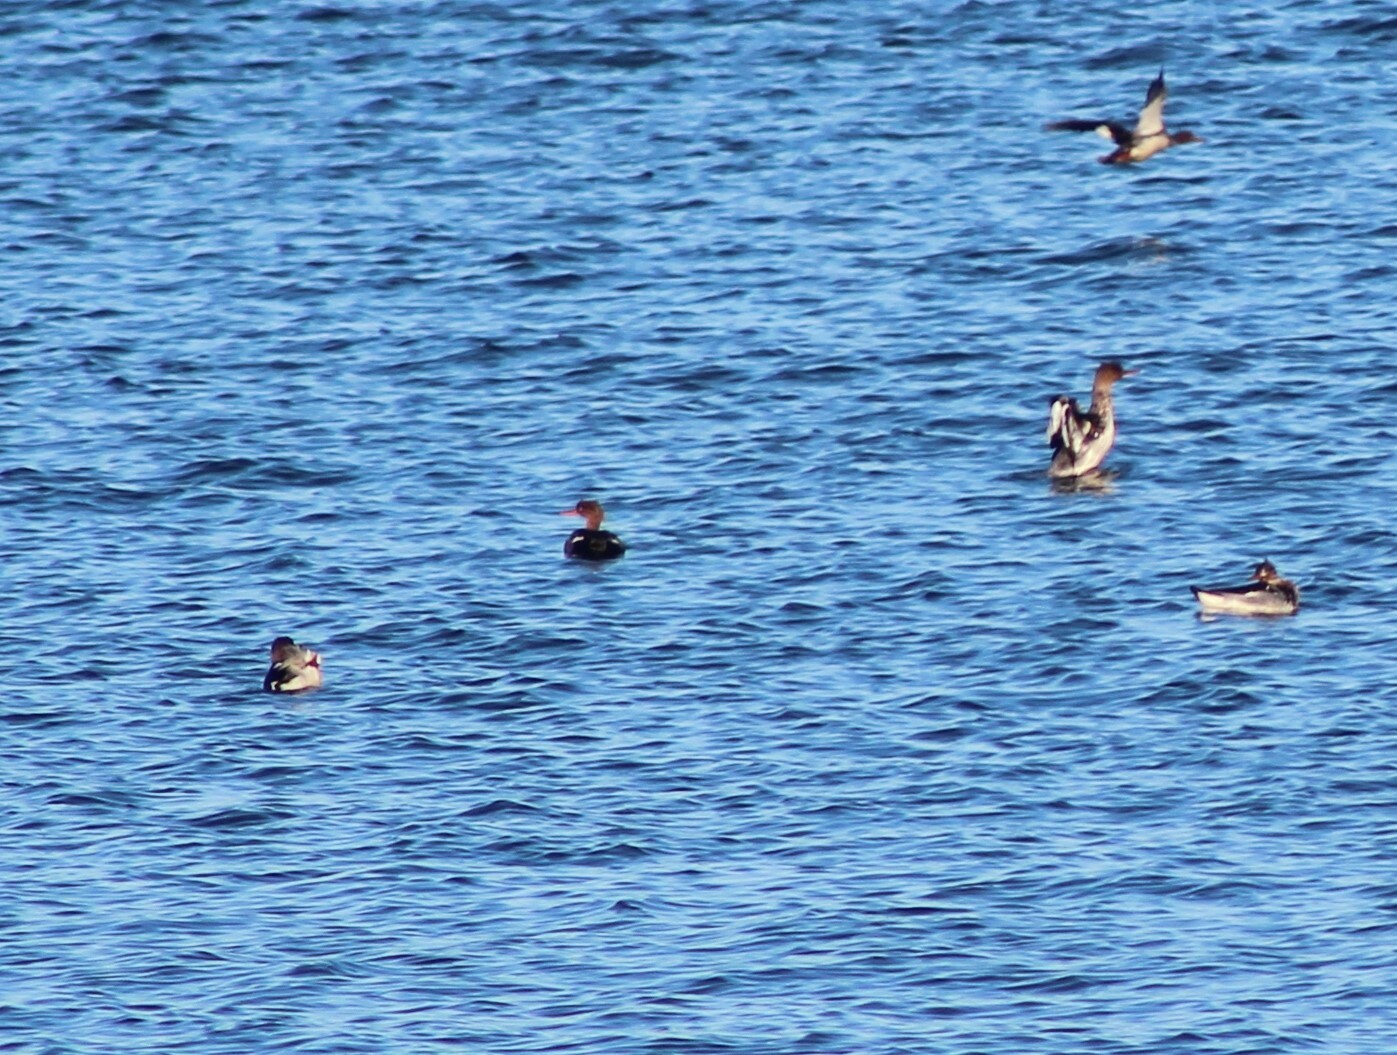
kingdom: Animalia
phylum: Chordata
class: Aves
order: Anseriformes
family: Anatidae
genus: Mergus
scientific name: Mergus serrator
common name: Red-breasted merganser
